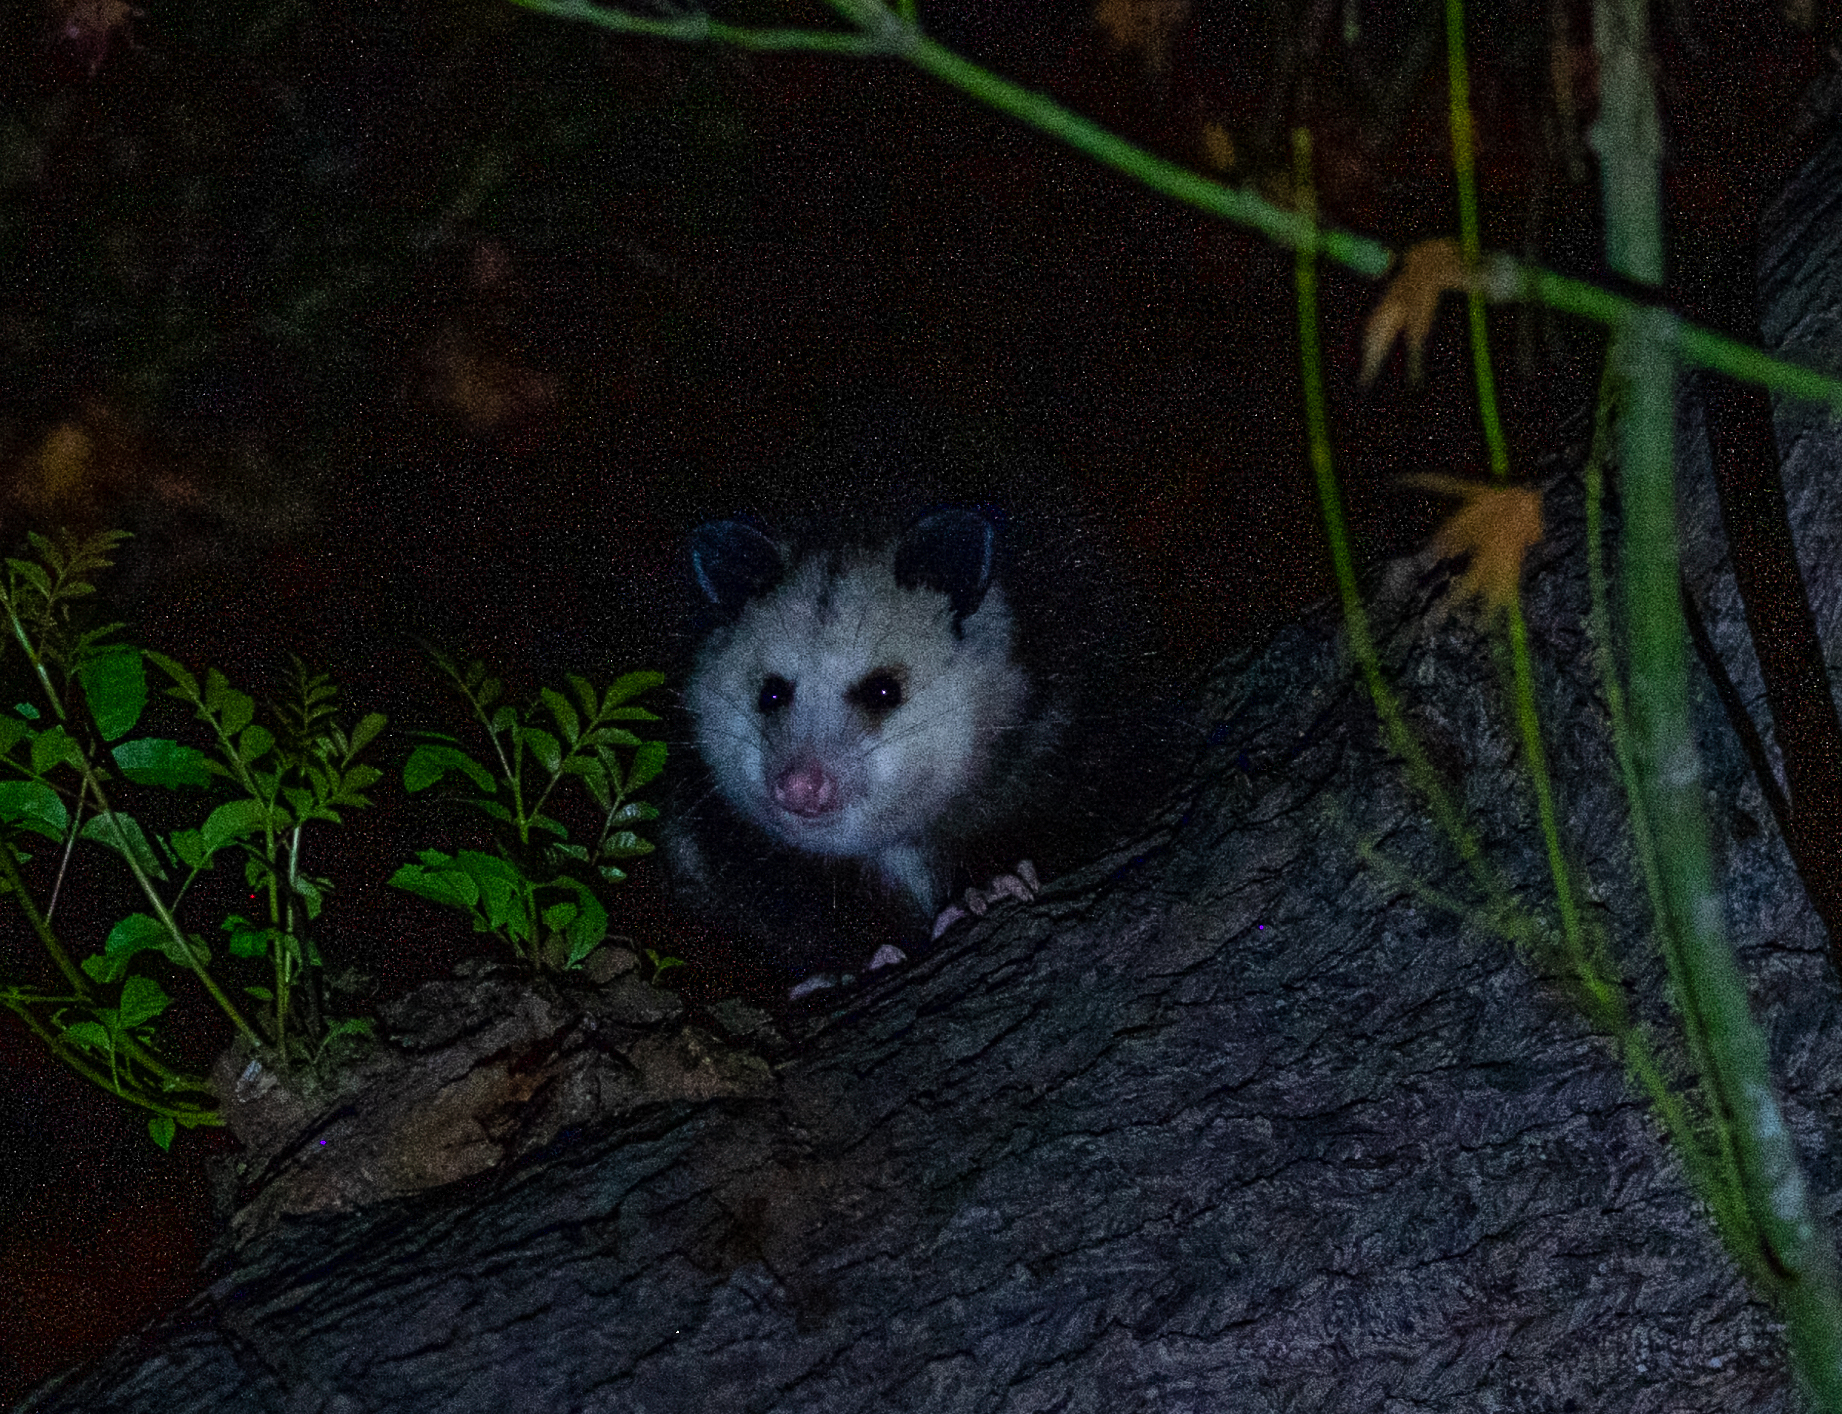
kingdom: Animalia
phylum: Chordata
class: Mammalia
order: Didelphimorphia
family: Didelphidae
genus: Didelphis
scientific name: Didelphis virginiana
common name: Virginia opossum
